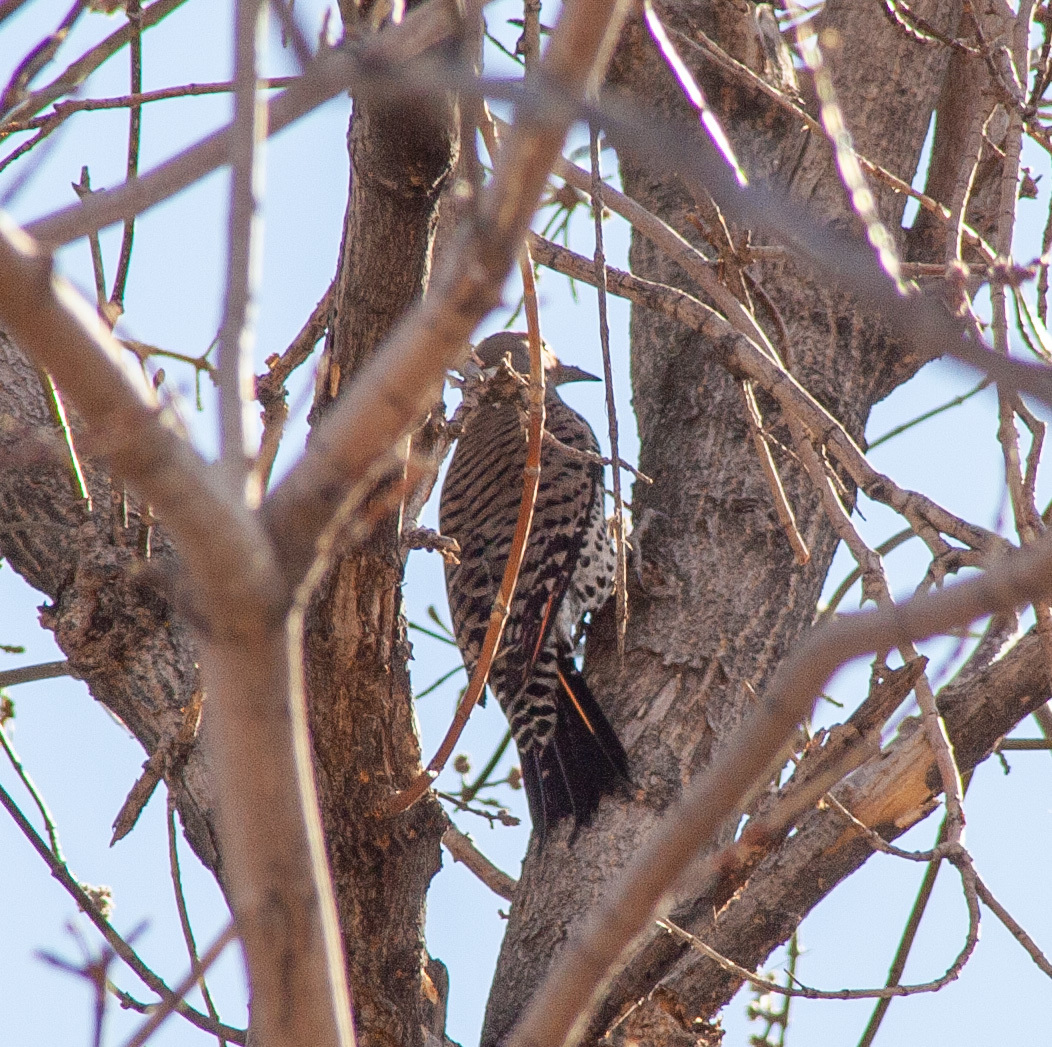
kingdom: Animalia
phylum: Chordata
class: Aves
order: Piciformes
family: Picidae
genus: Colaptes
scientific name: Colaptes auratus
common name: Northern flicker
